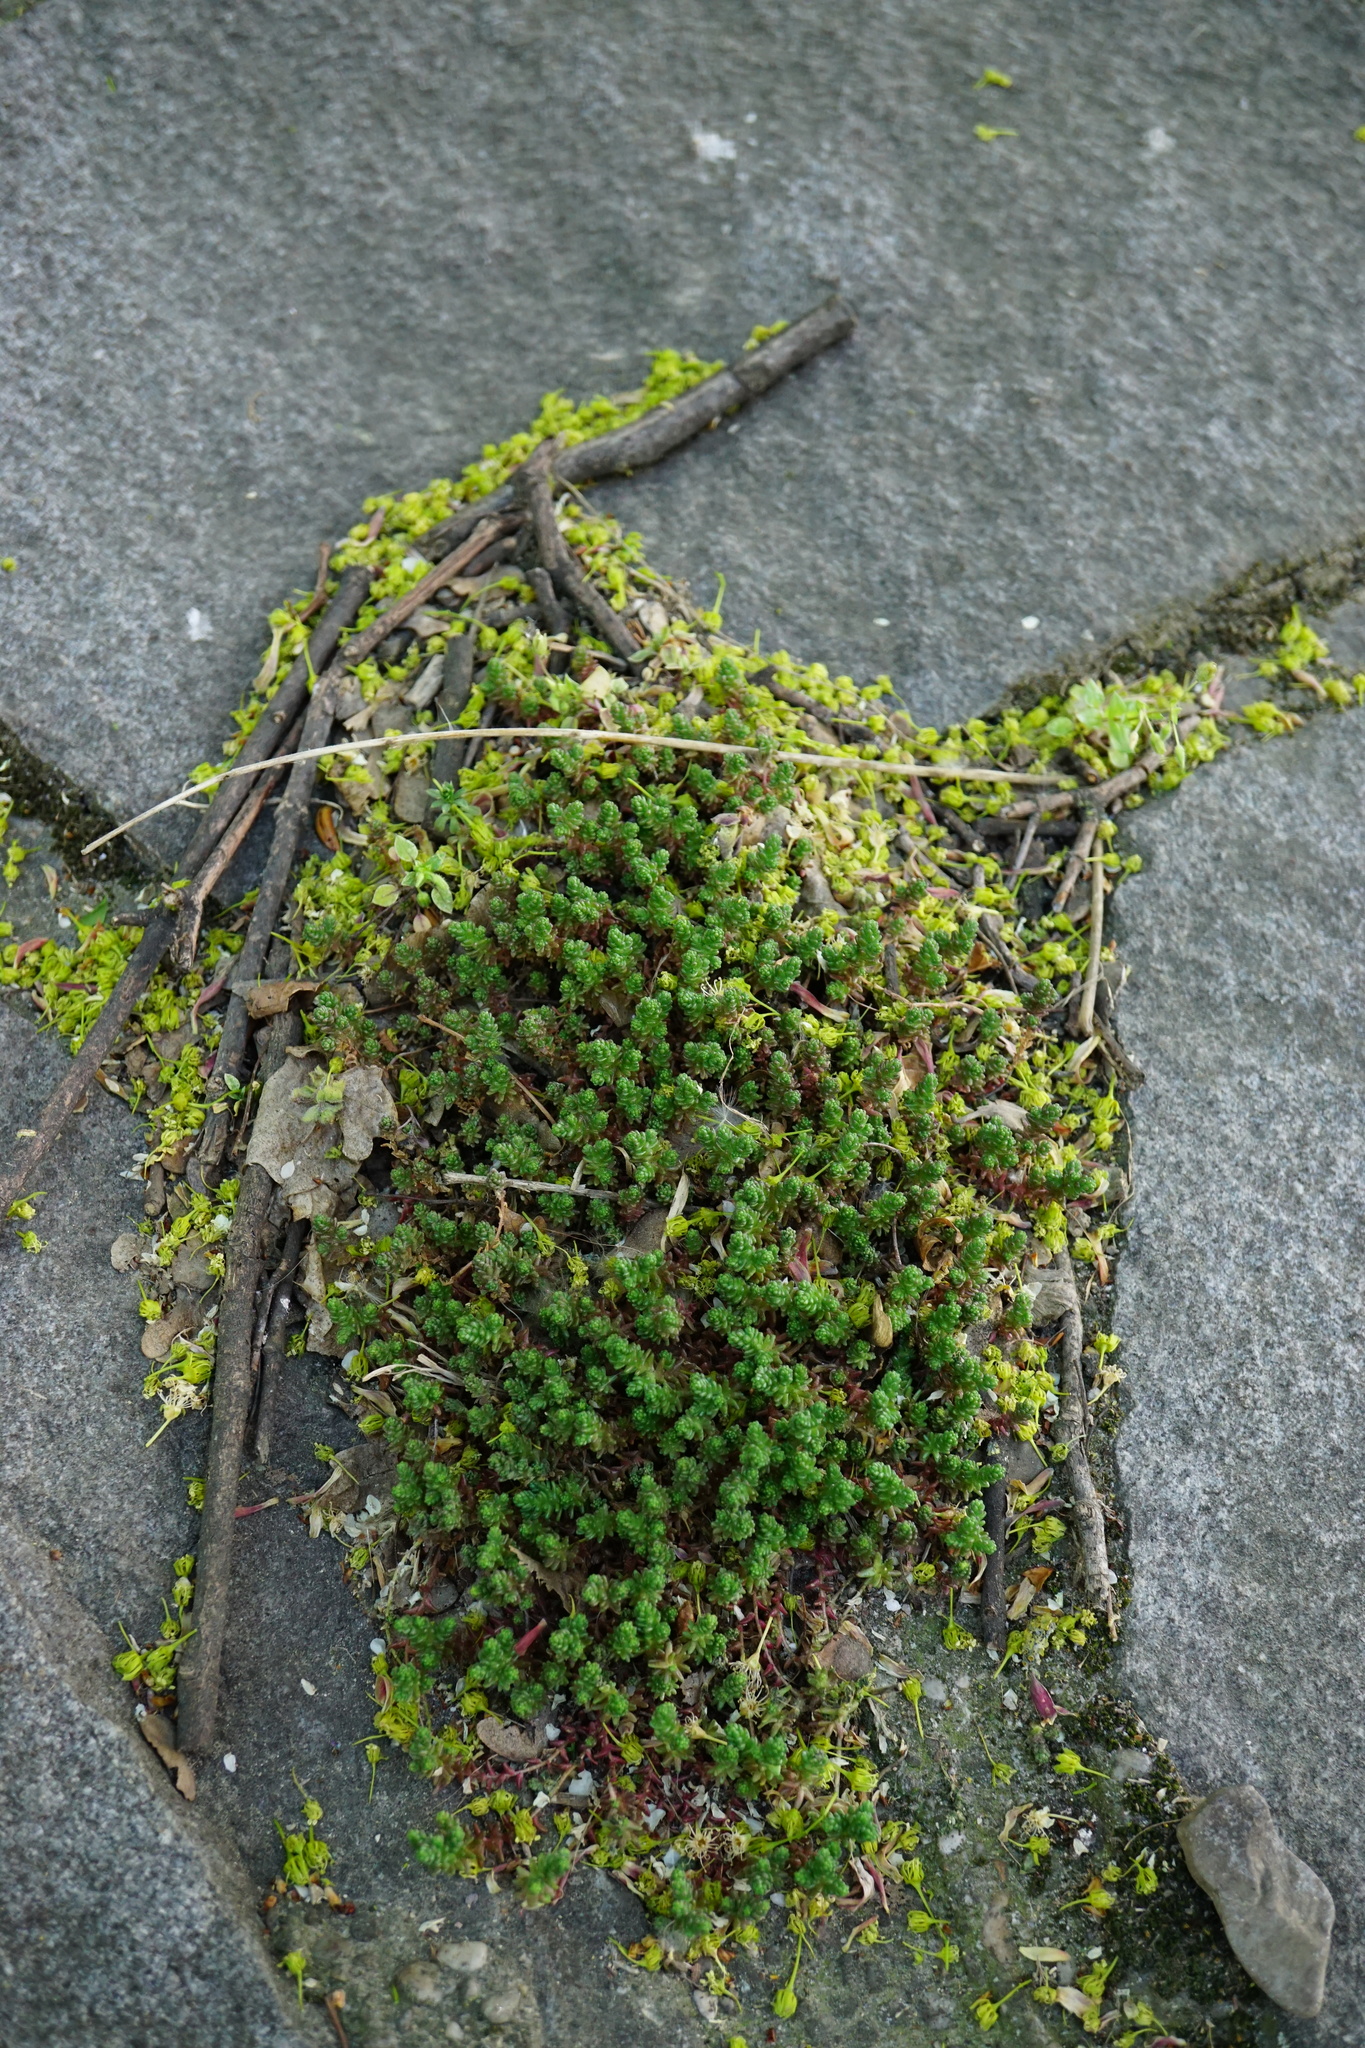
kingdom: Plantae
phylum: Tracheophyta
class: Magnoliopsida
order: Saxifragales
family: Crassulaceae
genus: Sedum
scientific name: Sedum acre
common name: Biting stonecrop
